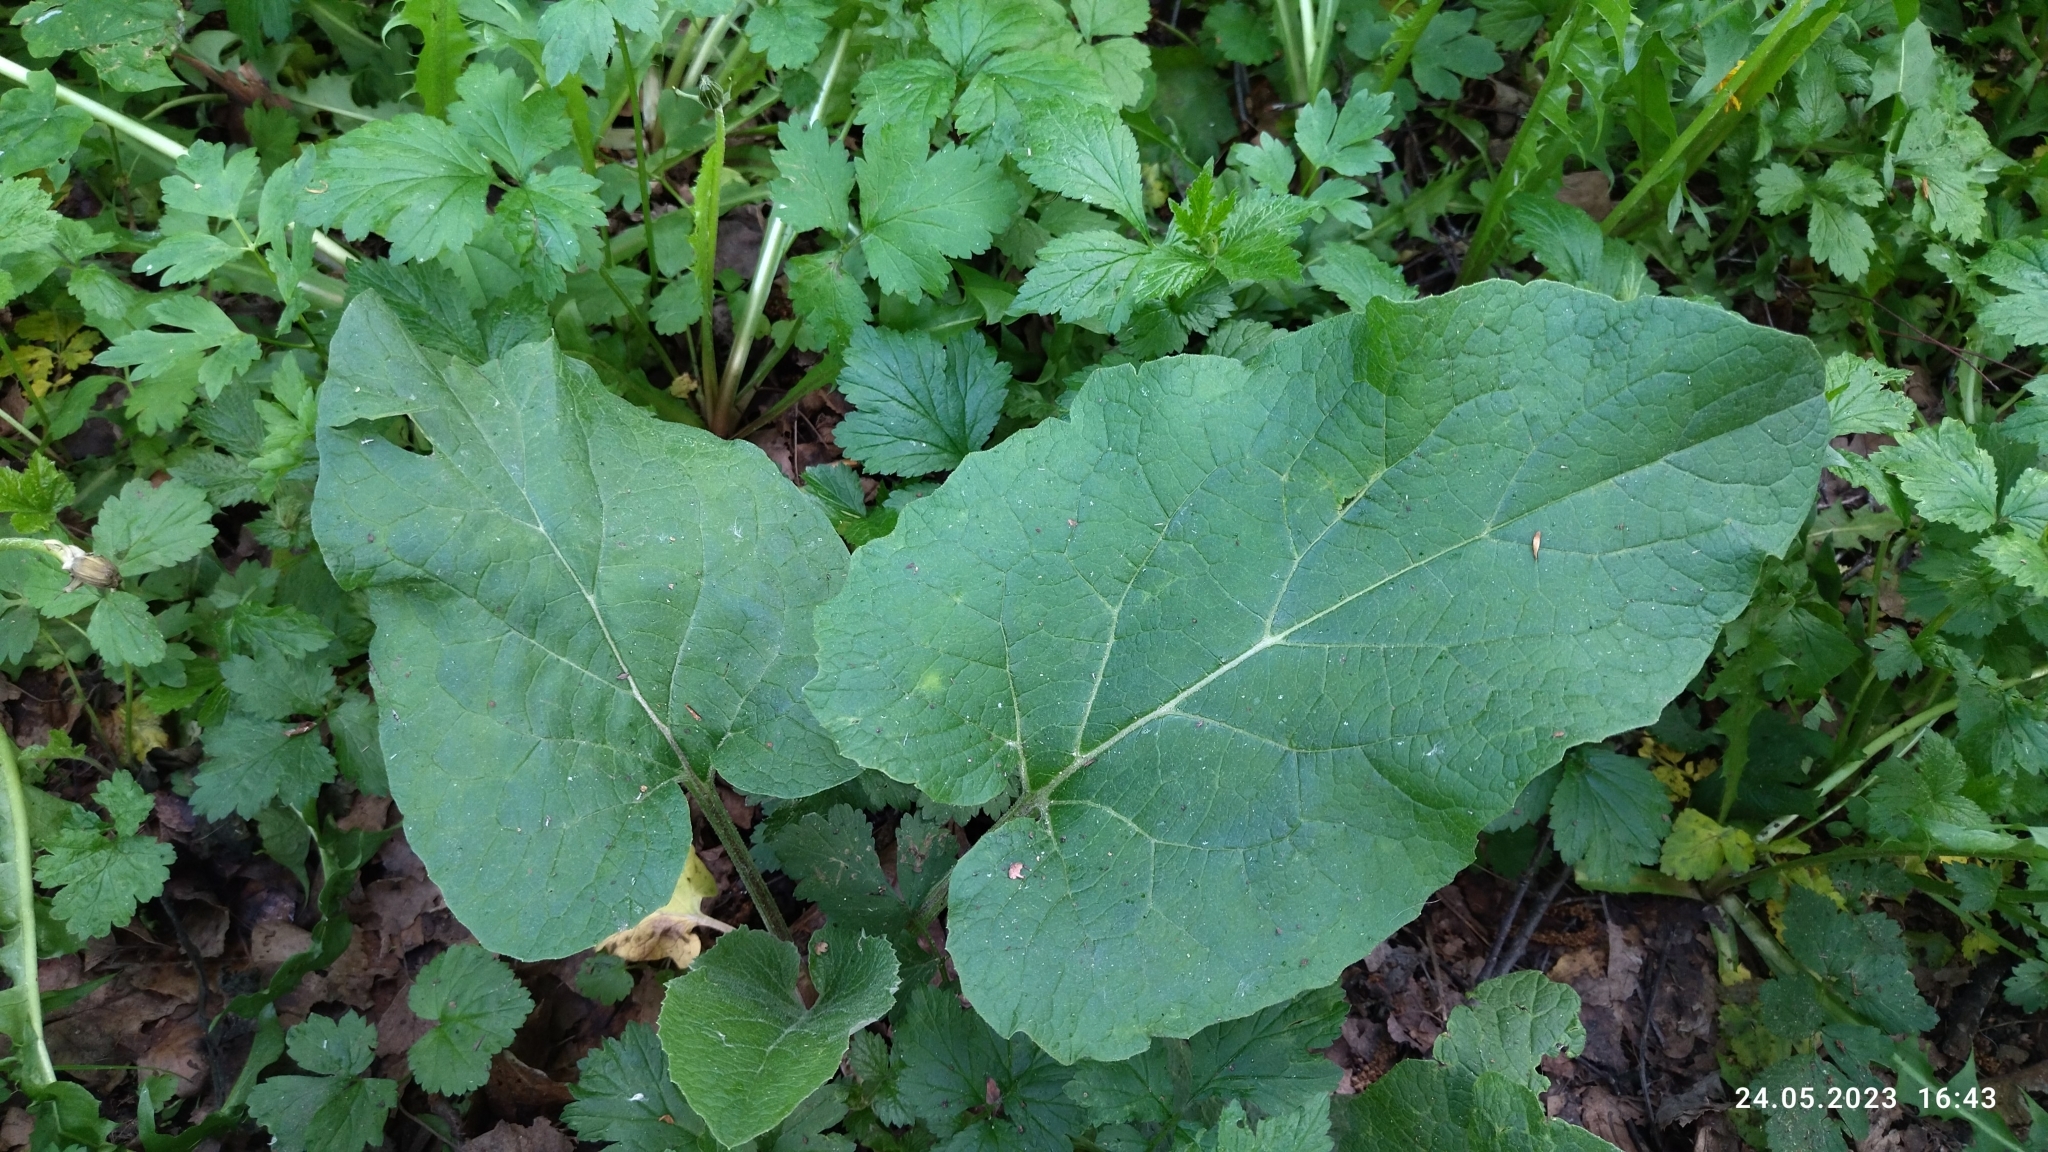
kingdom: Plantae
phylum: Tracheophyta
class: Magnoliopsida
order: Asterales
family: Asteraceae
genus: Arctium
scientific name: Arctium
